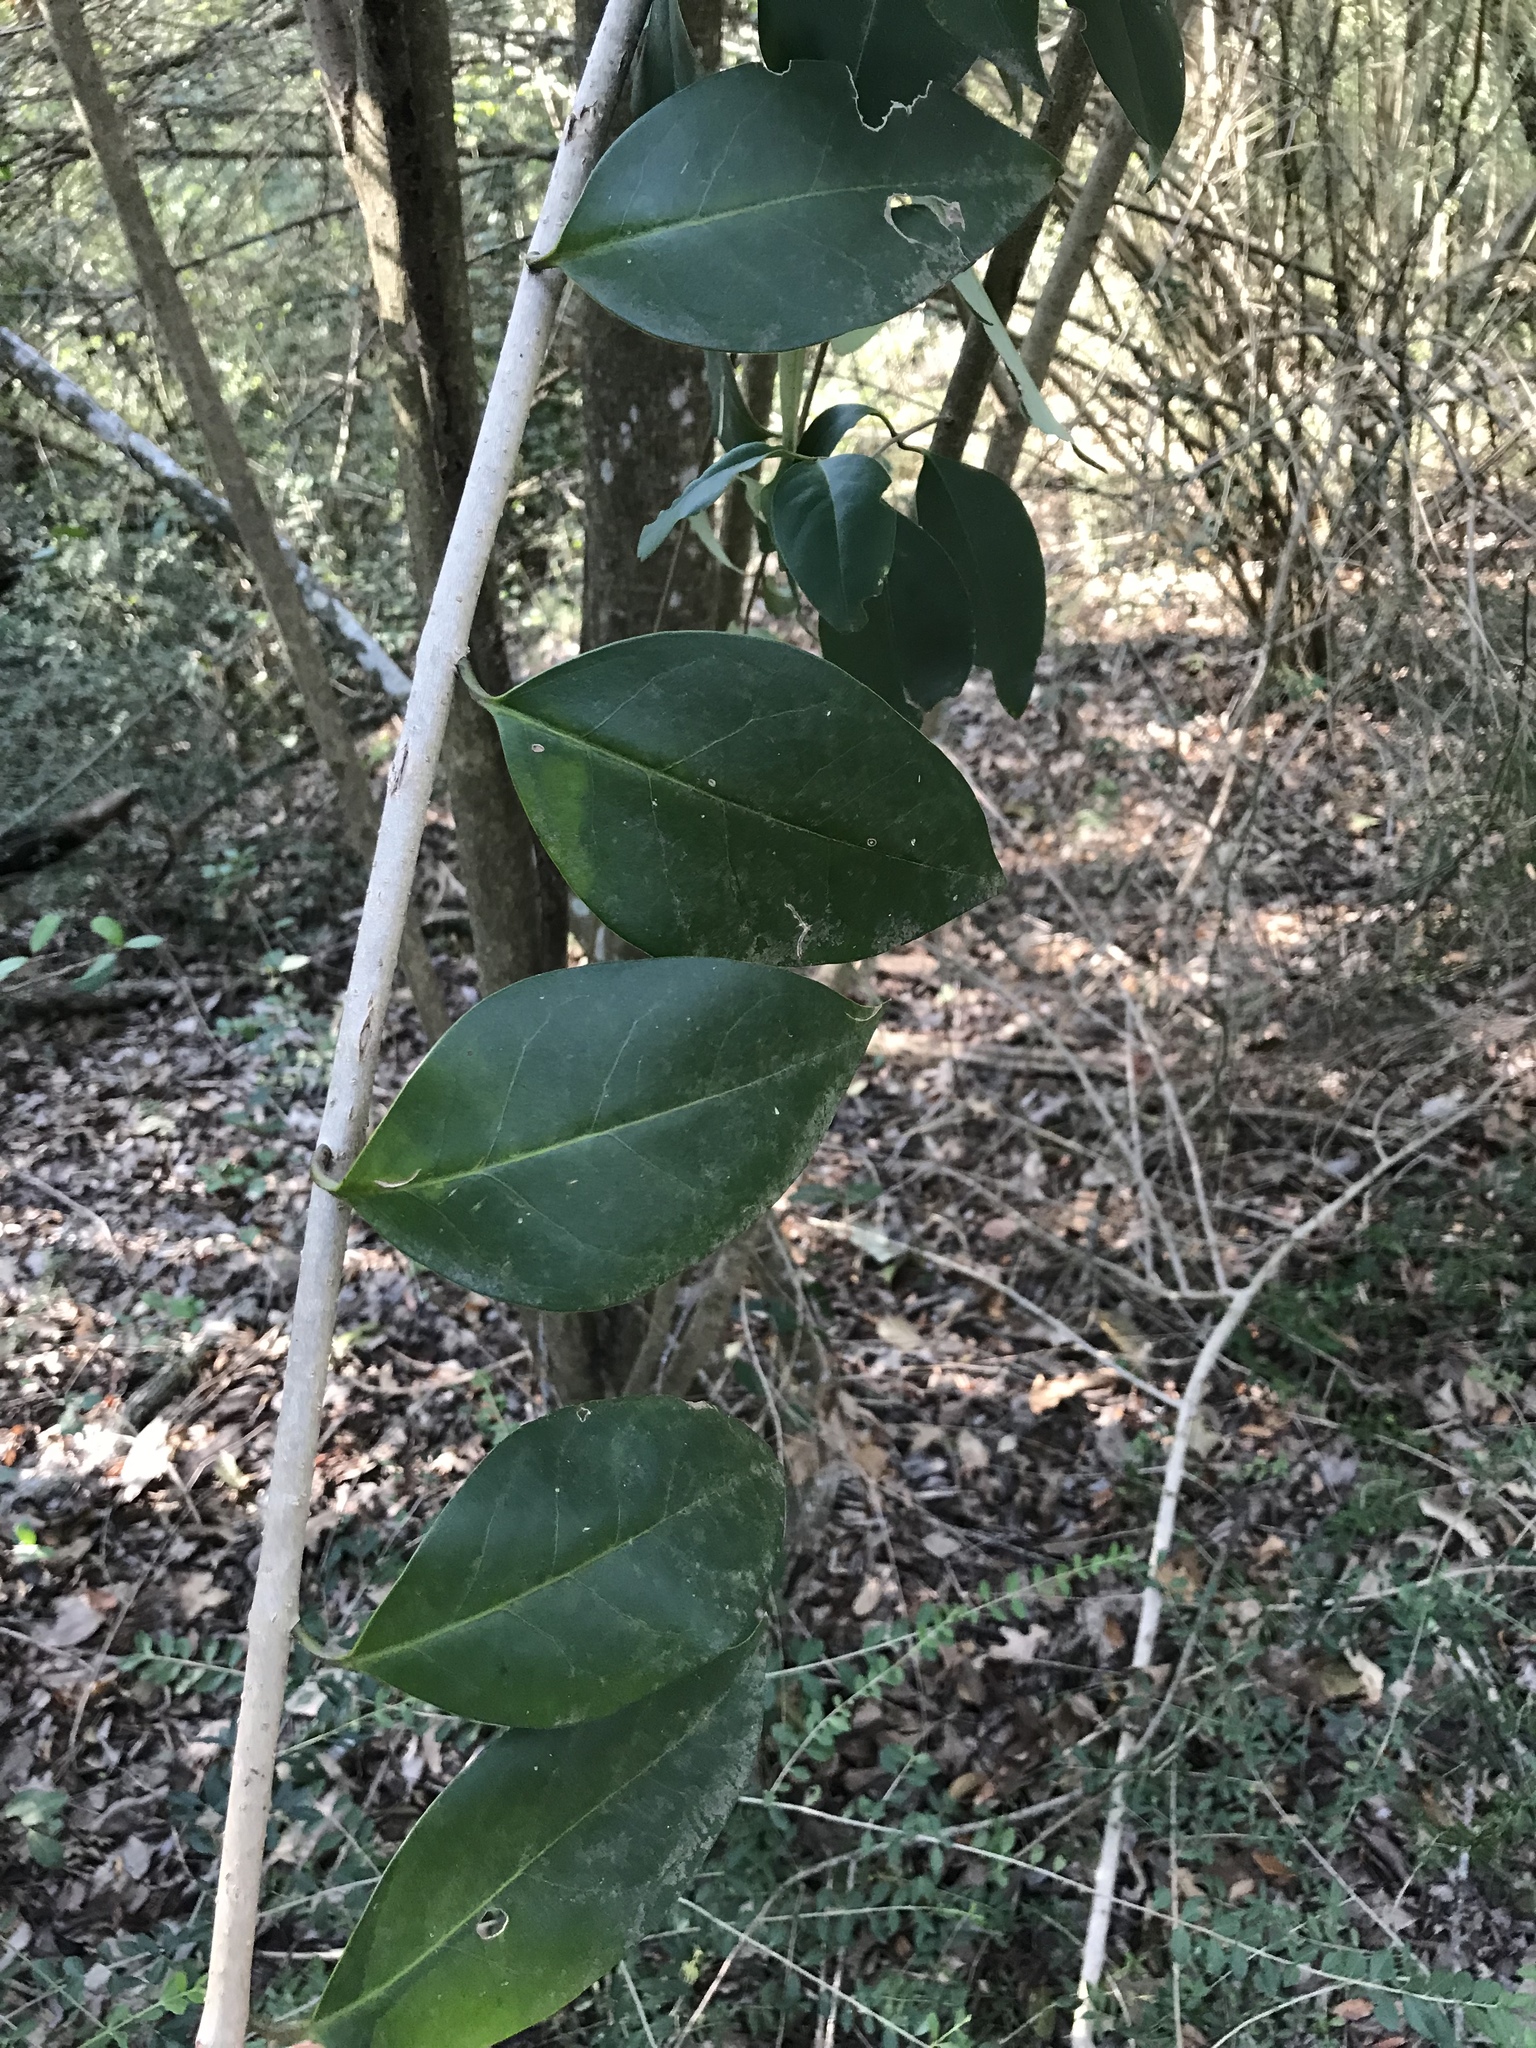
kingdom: Plantae
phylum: Tracheophyta
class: Magnoliopsida
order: Lamiales
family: Oleaceae
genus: Ligustrum
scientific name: Ligustrum lucidum
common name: Glossy privet
